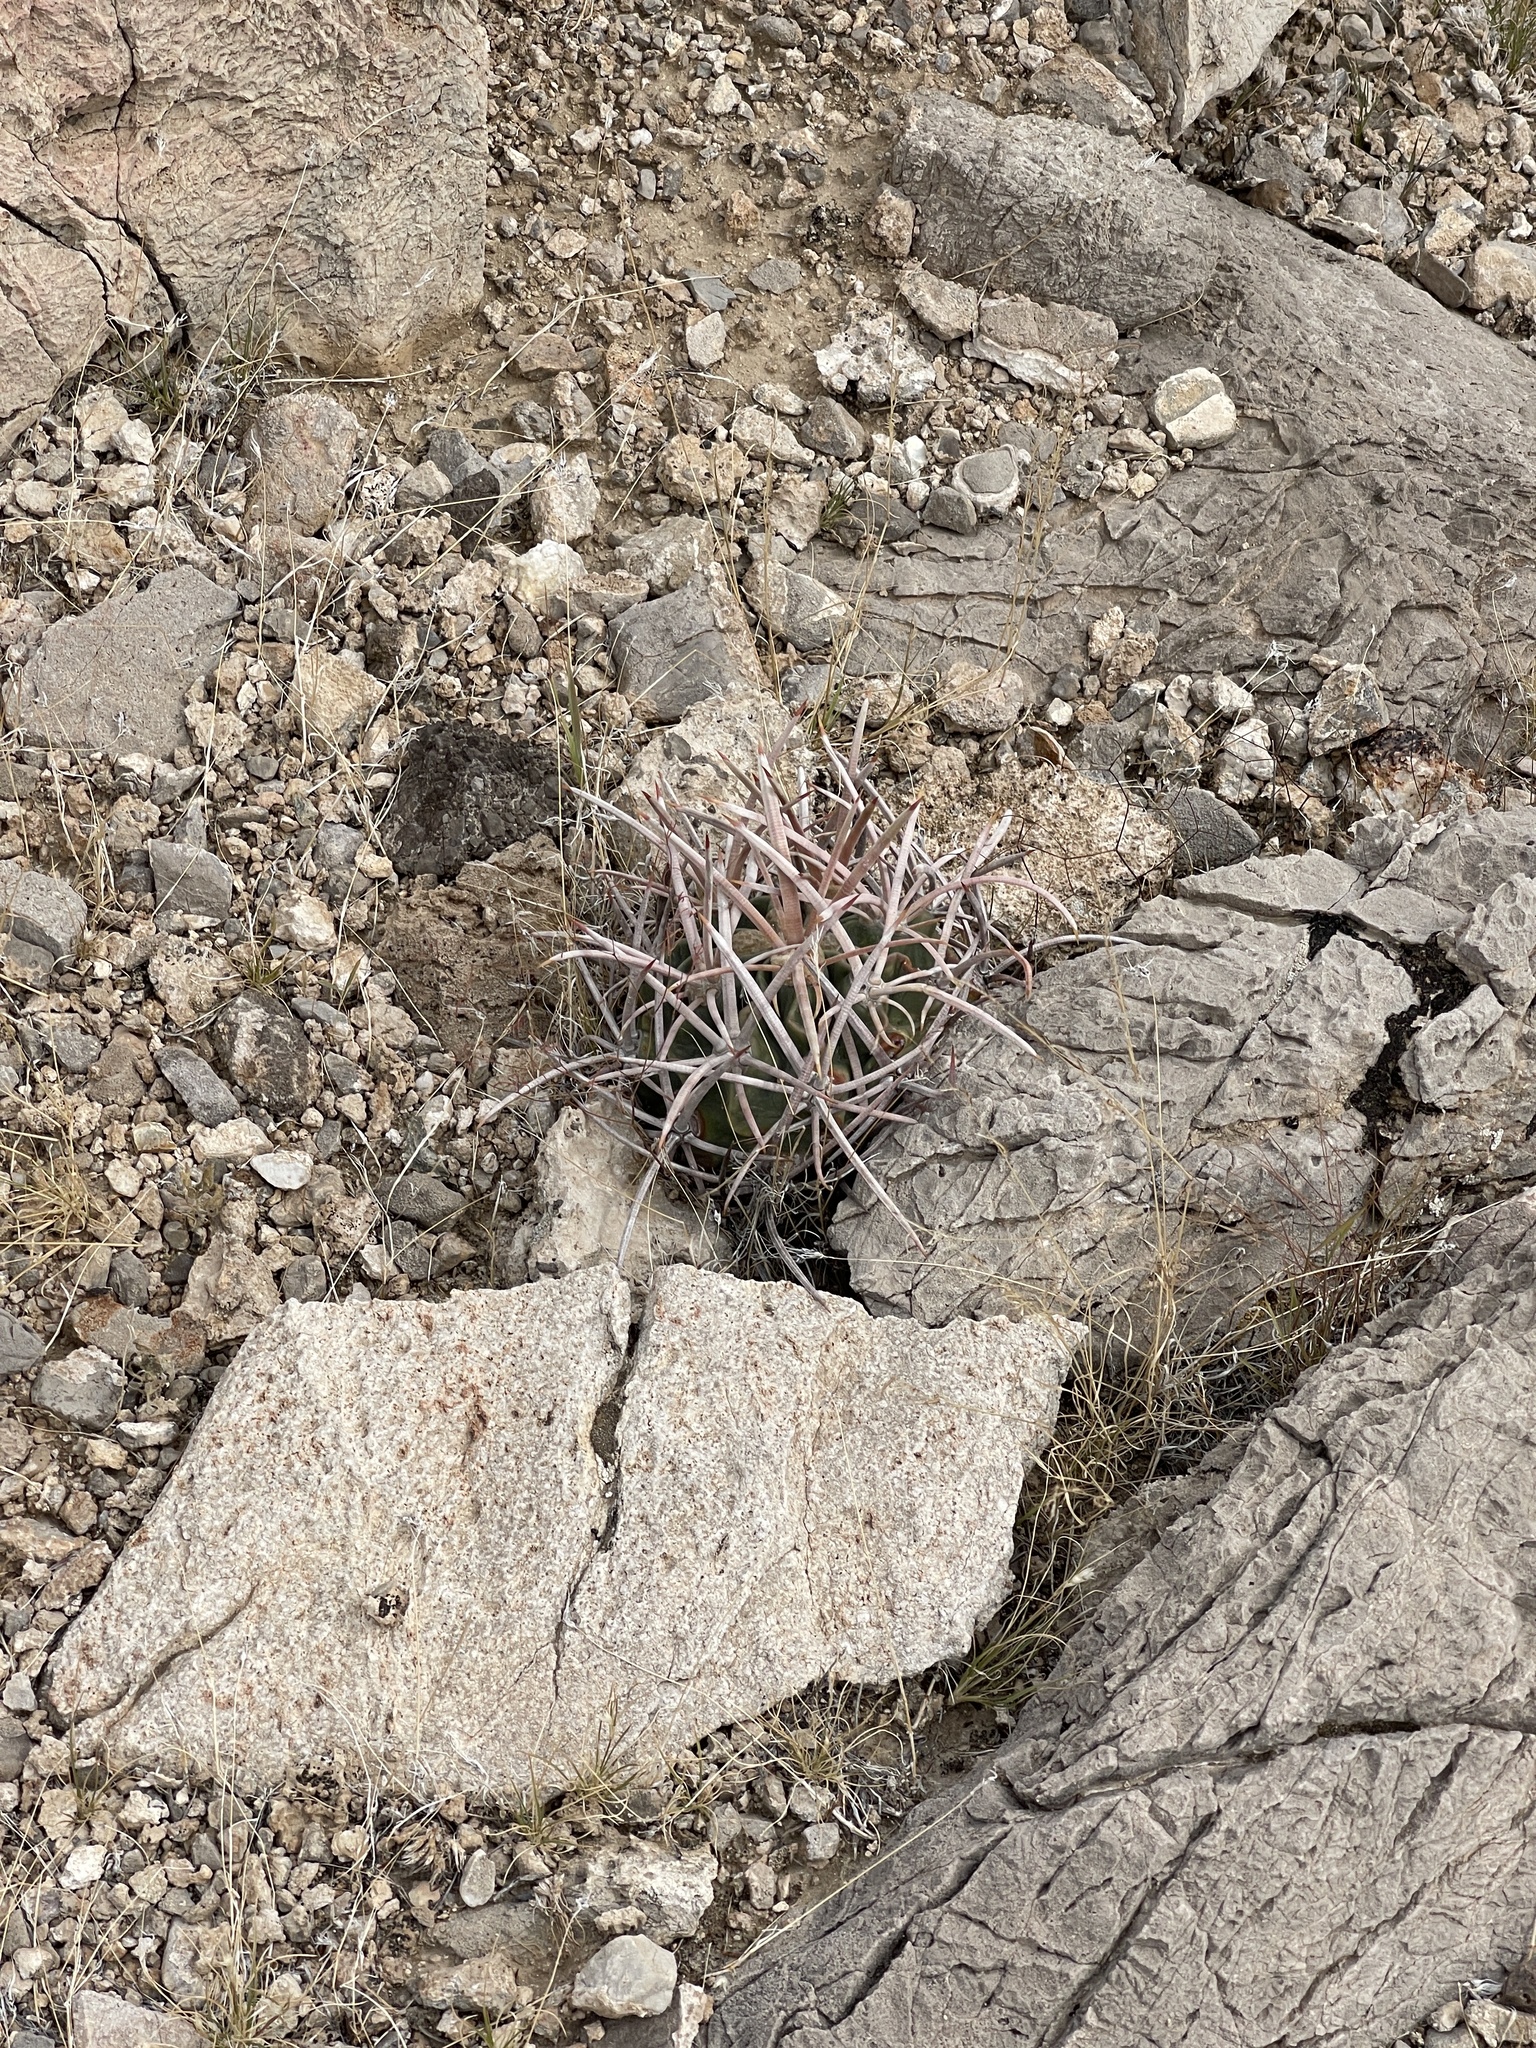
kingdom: Plantae
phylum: Tracheophyta
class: Magnoliopsida
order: Caryophyllales
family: Cactaceae
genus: Echinocactus
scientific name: Echinocactus polycephalus
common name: Cottontop cactus
